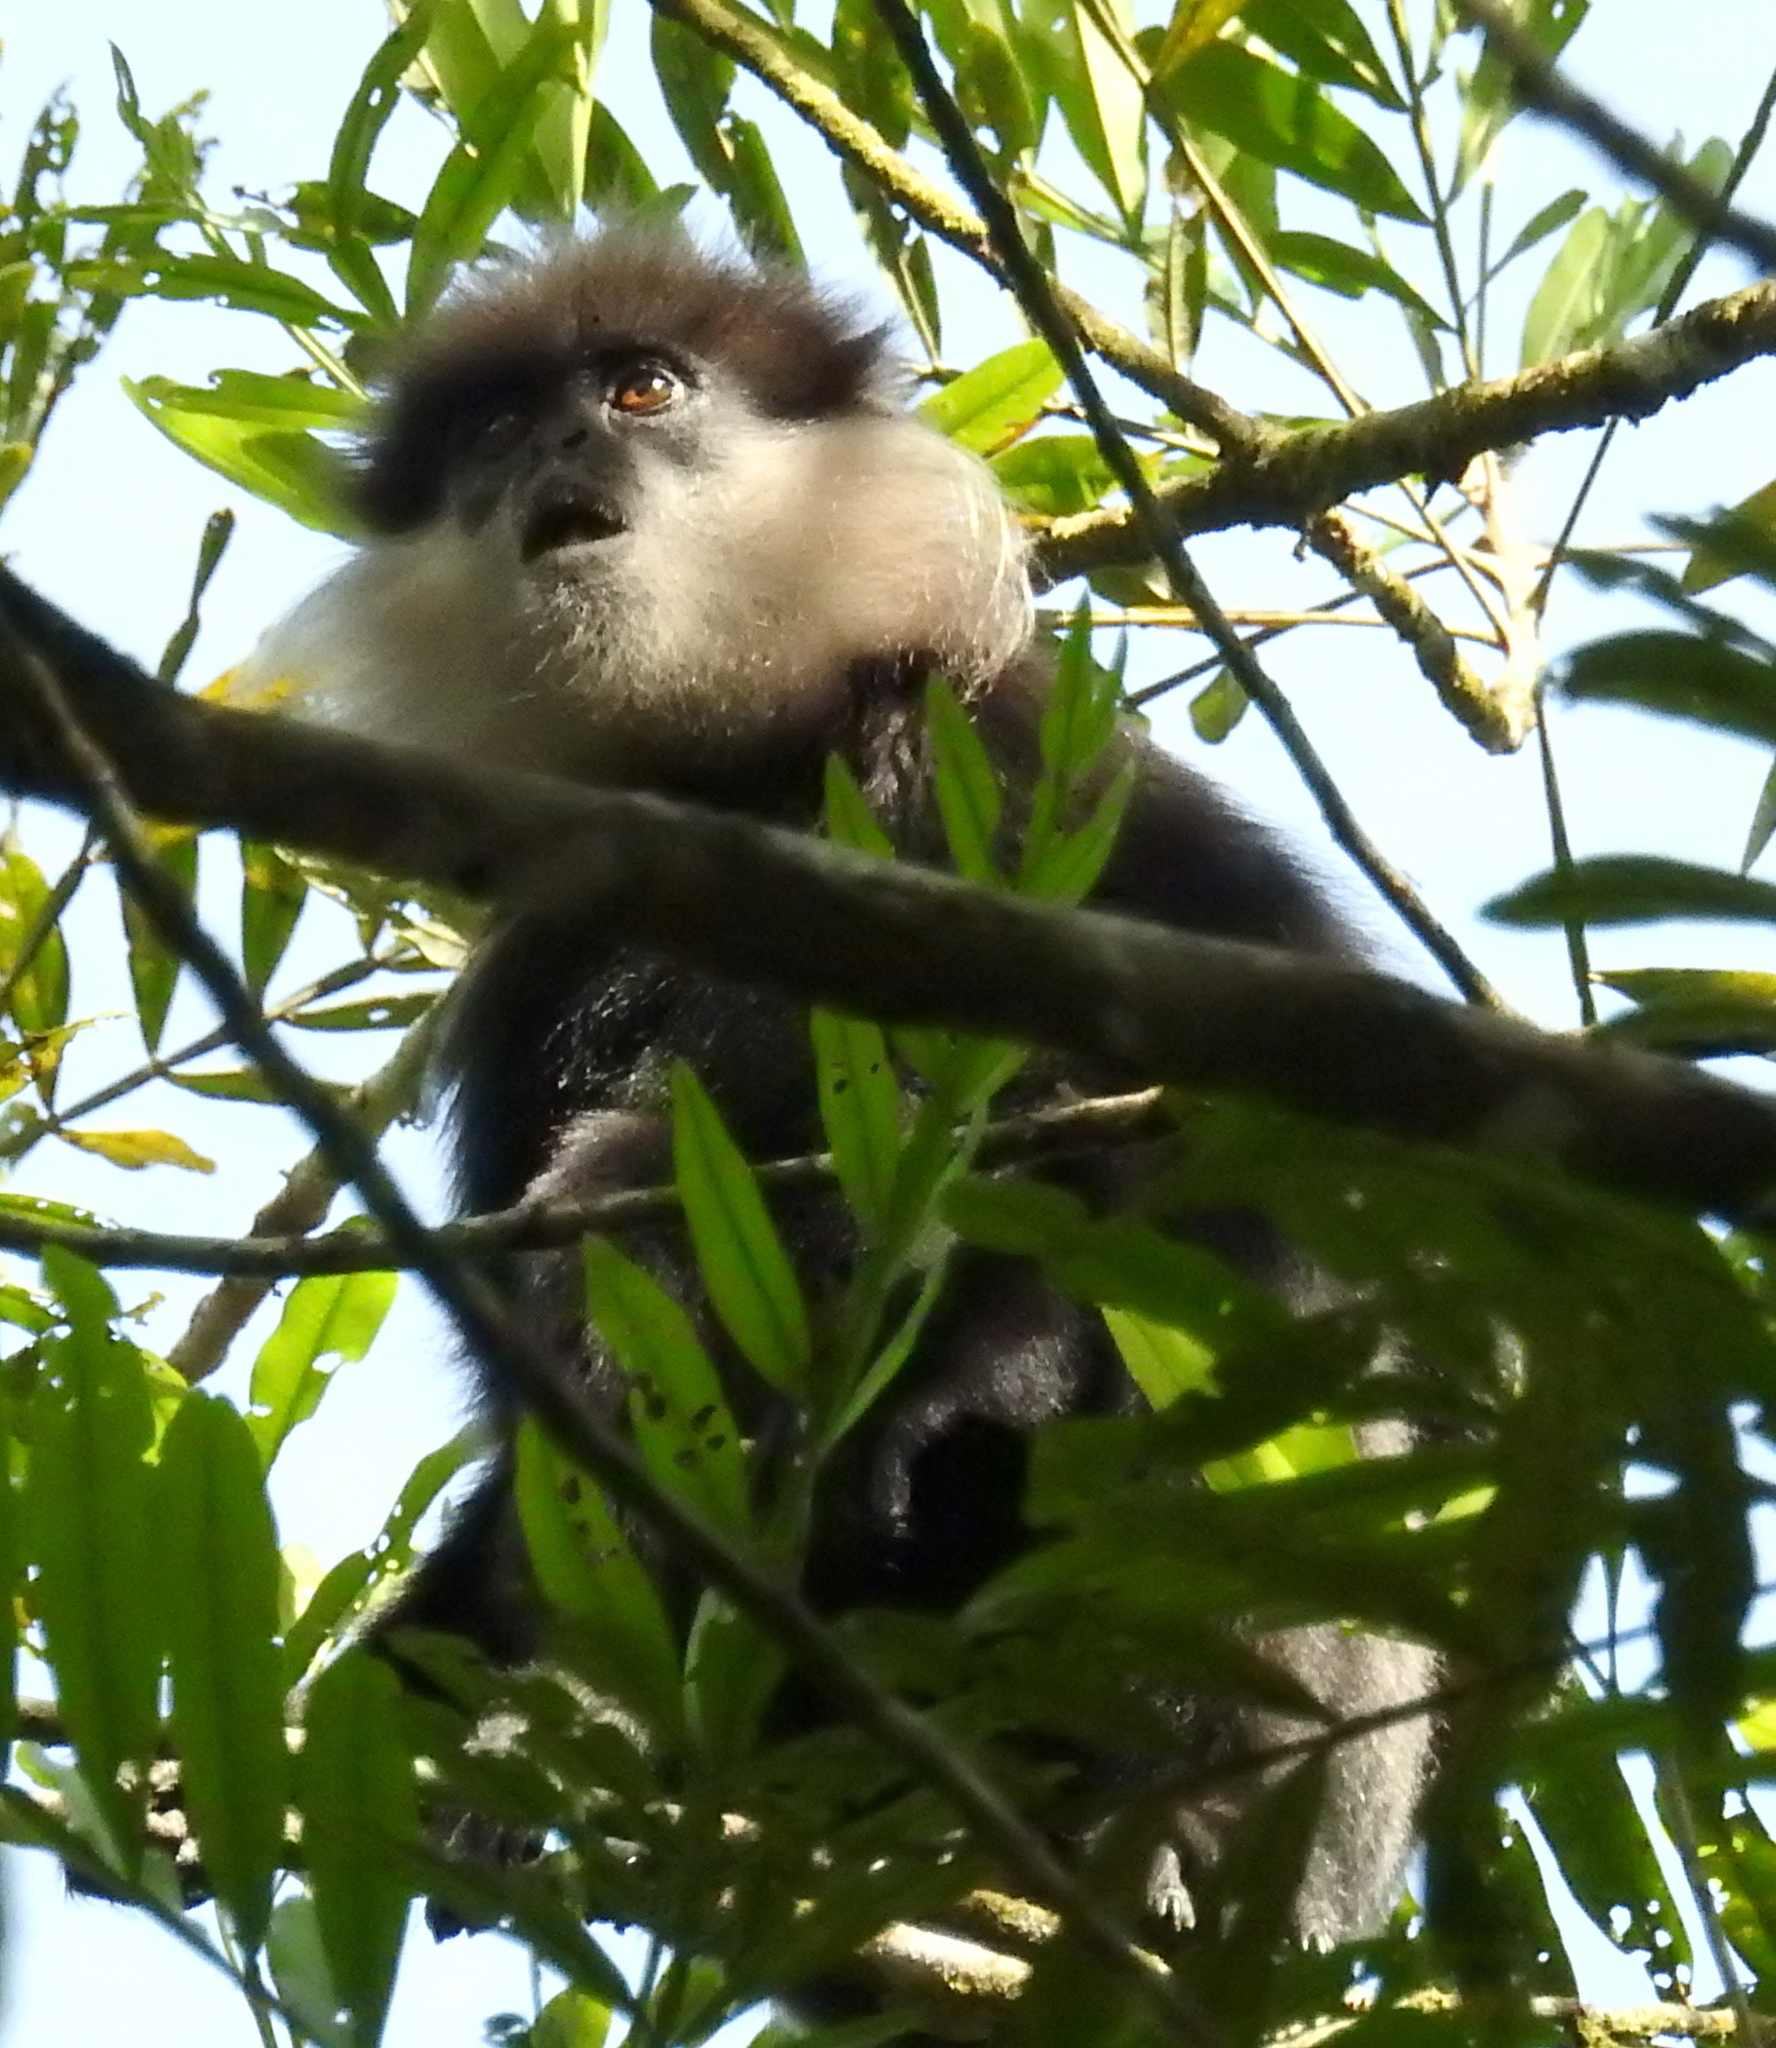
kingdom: Animalia
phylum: Chordata
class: Mammalia
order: Primates
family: Cercopithecidae
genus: Semnopithecus
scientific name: Semnopithecus vetulus
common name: Purple-faced langur
